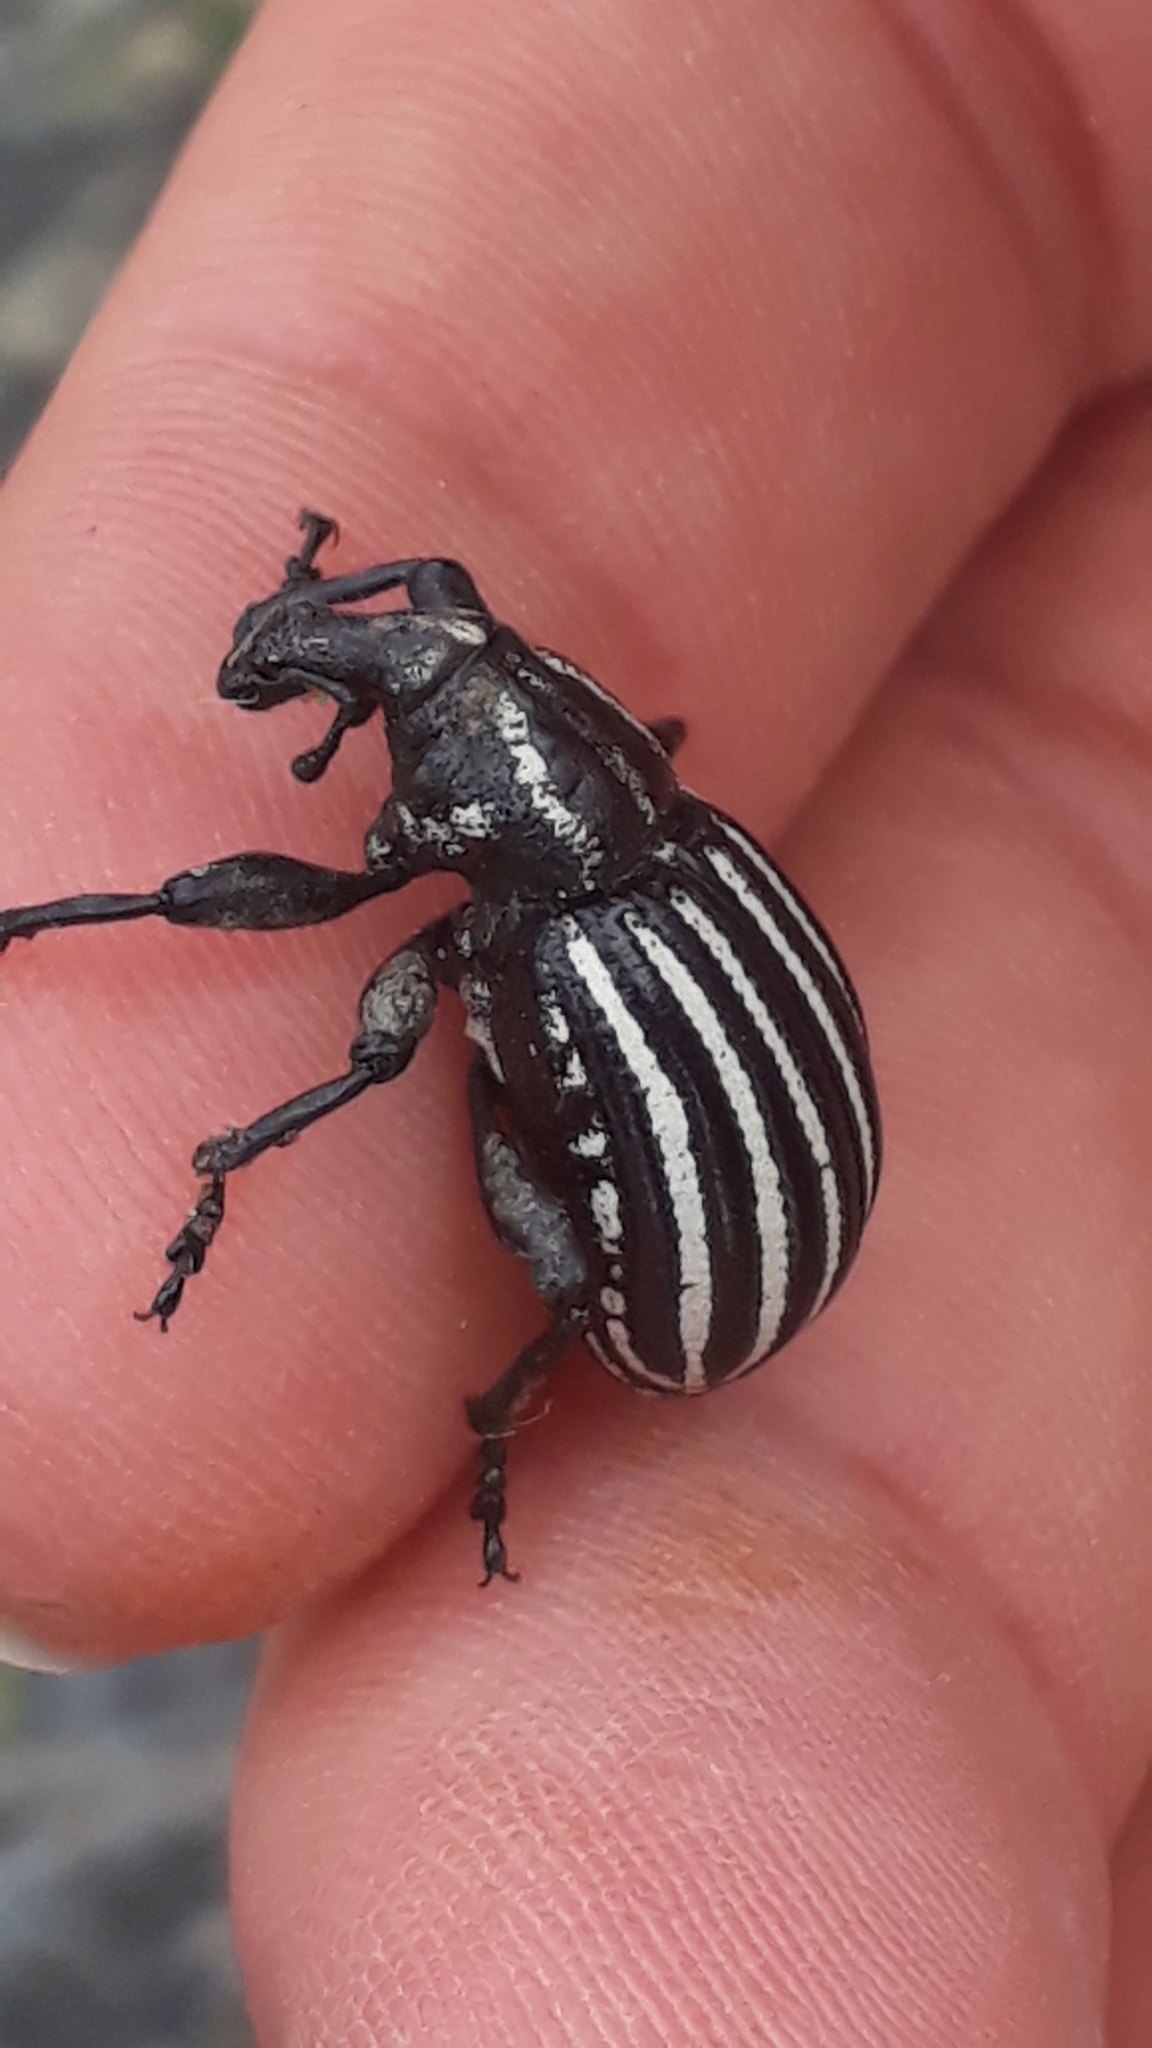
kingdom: Animalia
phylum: Arthropoda
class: Insecta
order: Coleoptera
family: Curculionidae
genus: Lyperobius
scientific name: Lyperobius hudsoni
